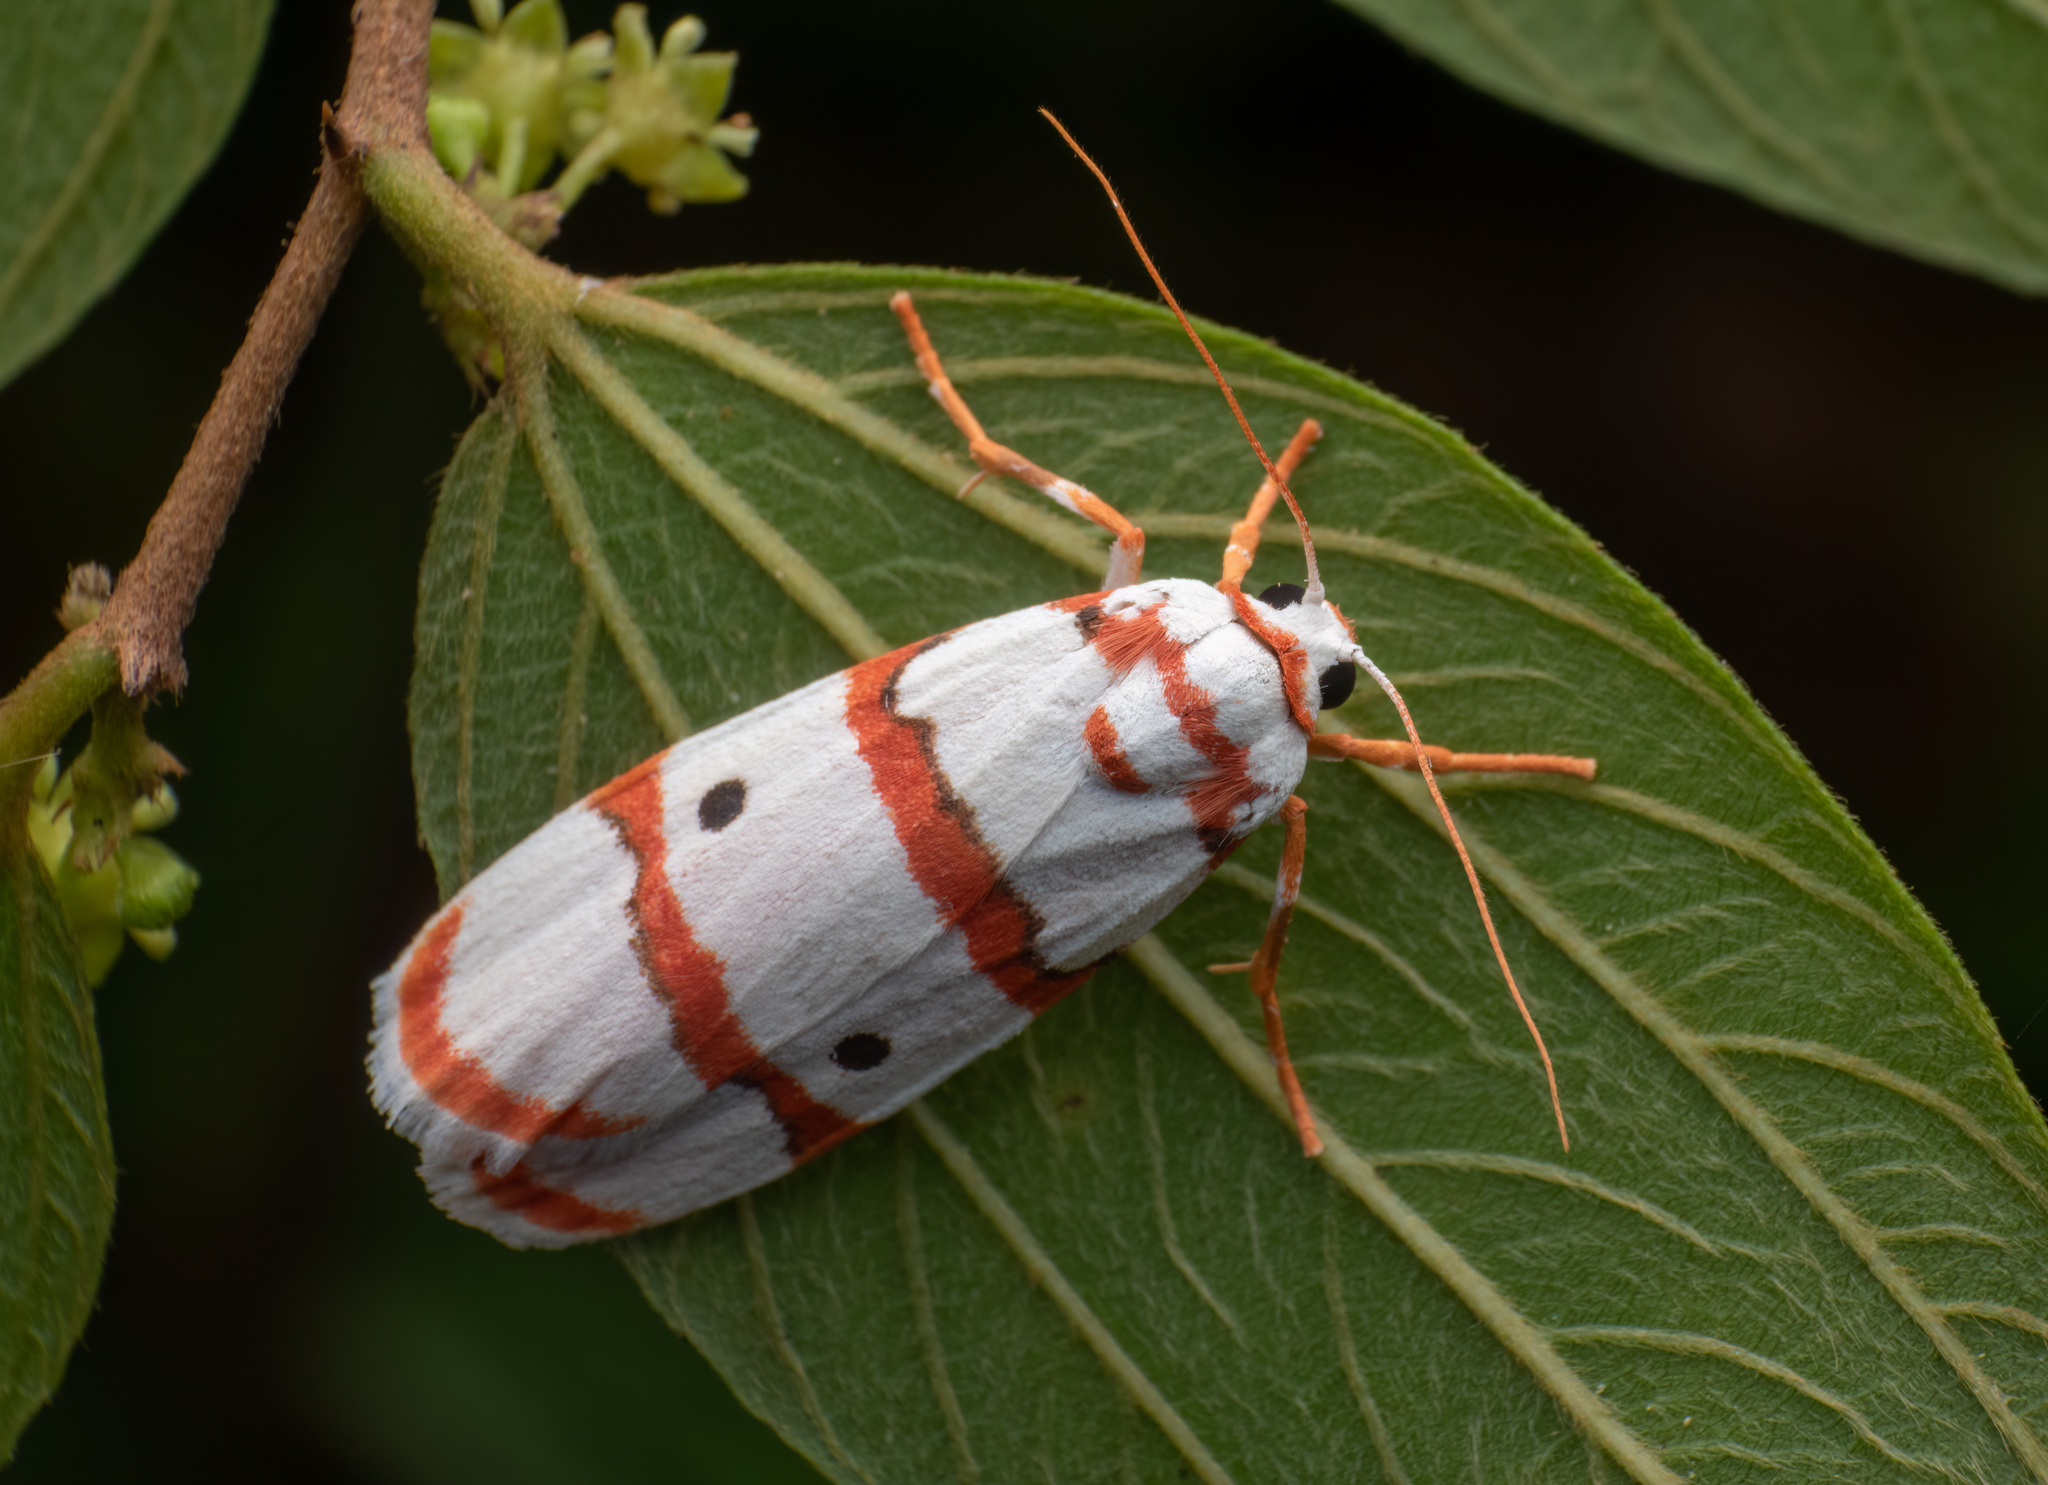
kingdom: Animalia
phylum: Arthropoda
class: Insecta
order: Lepidoptera
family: Erebidae
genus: Cyana
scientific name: Cyana peregrina
